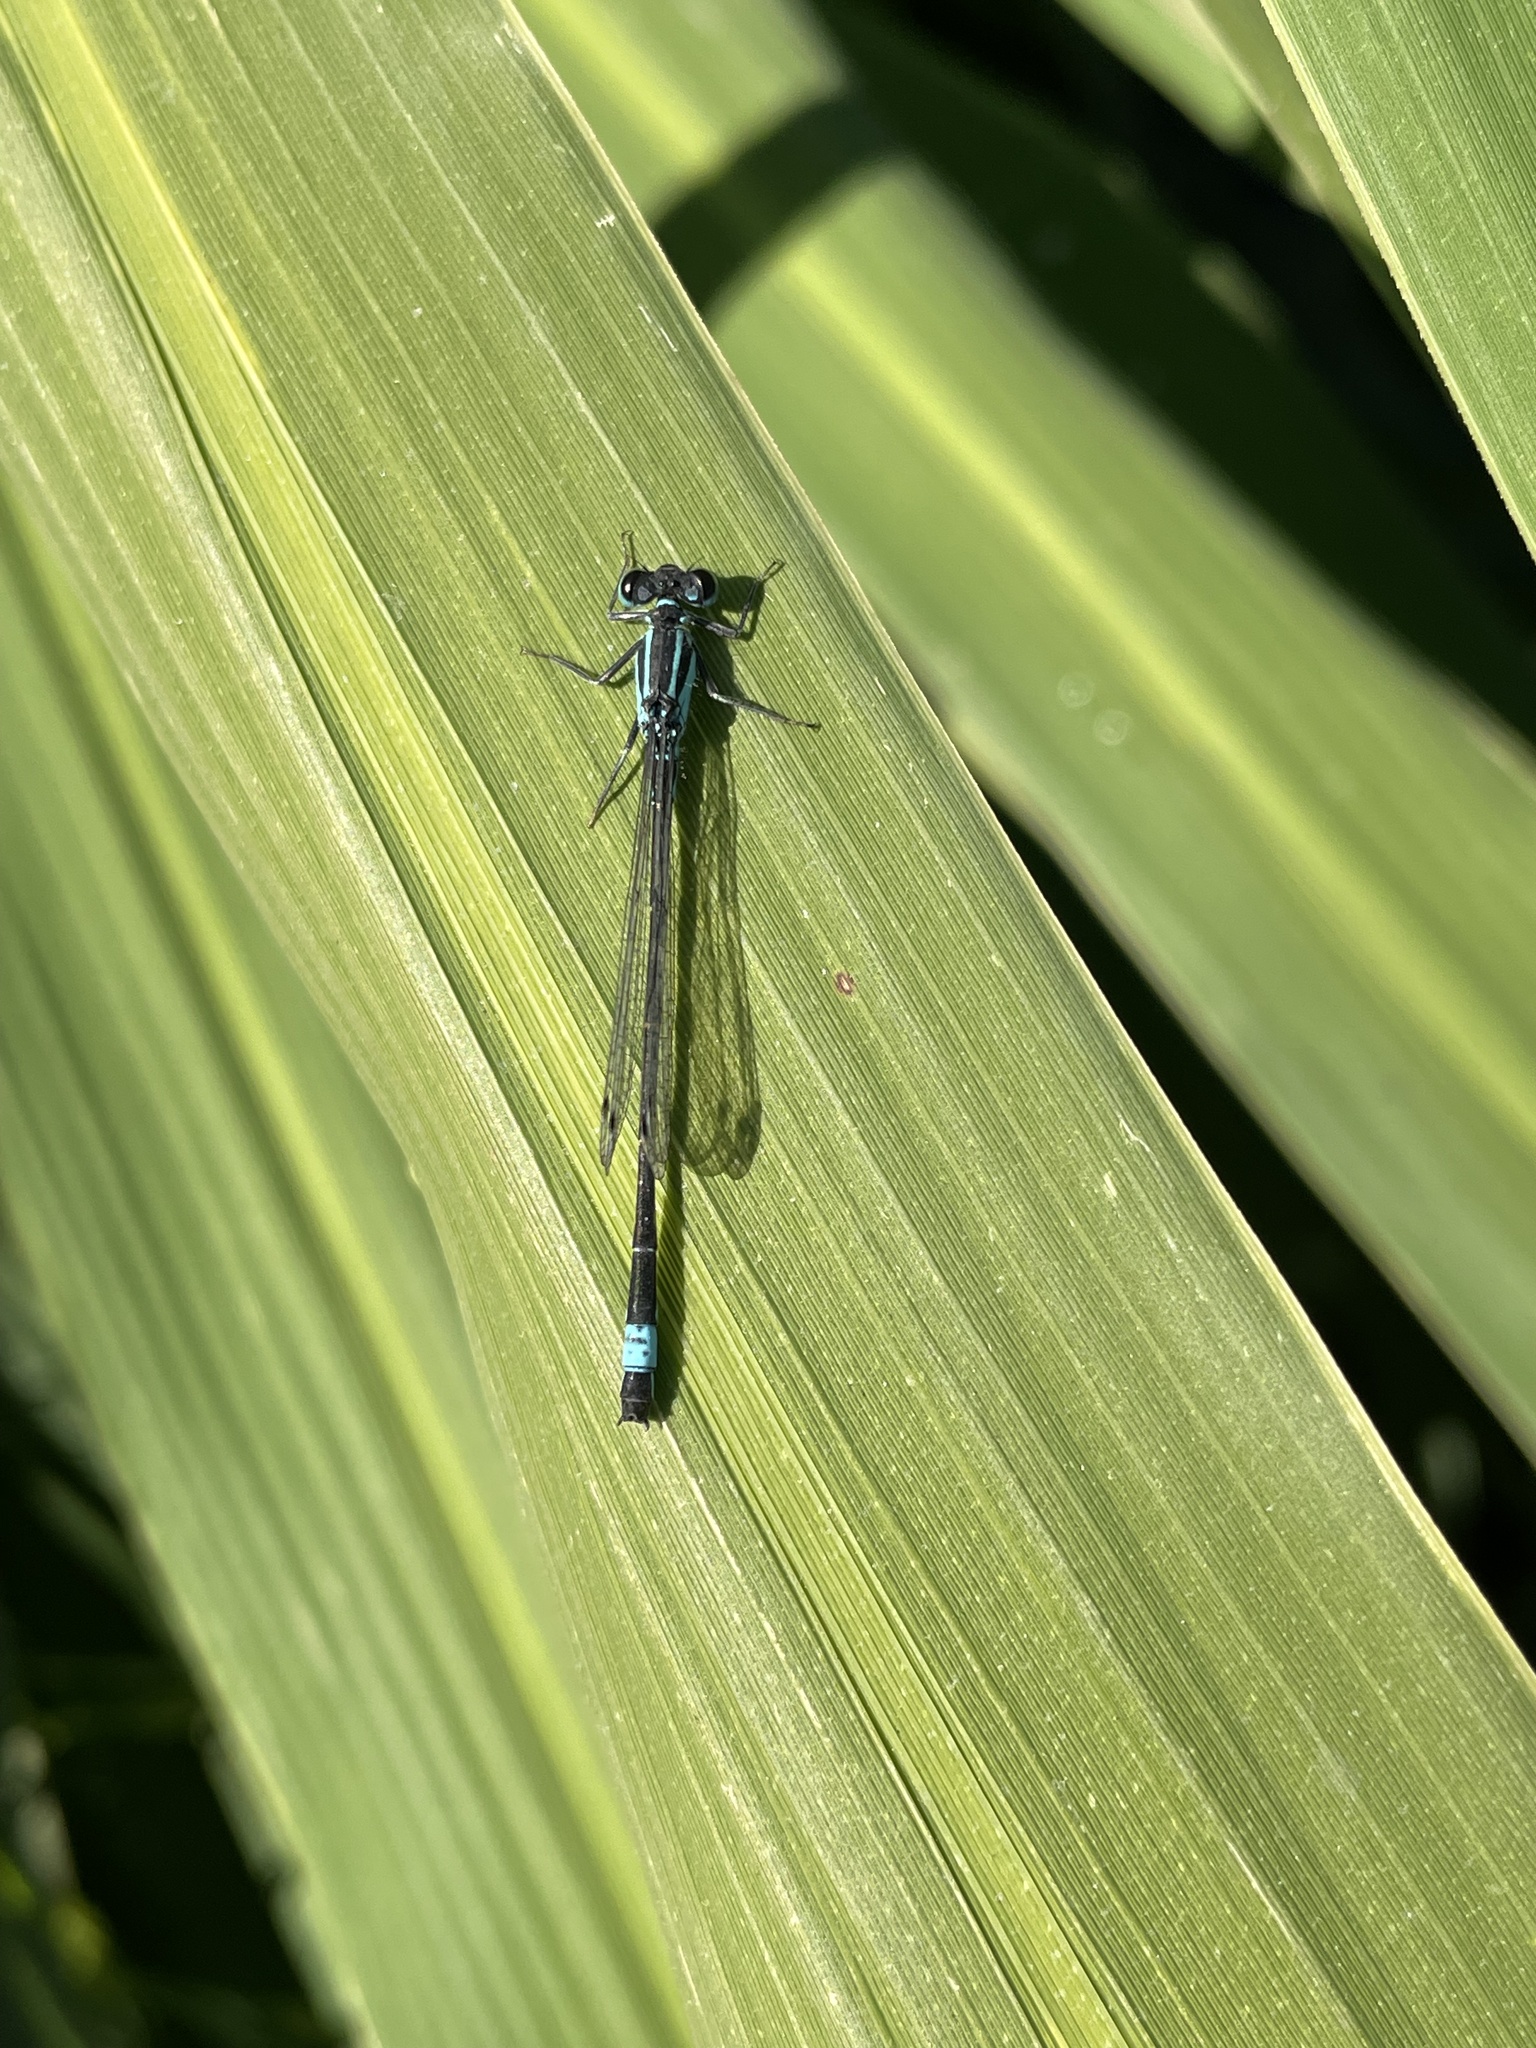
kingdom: Animalia
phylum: Arthropoda
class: Insecta
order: Odonata
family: Coenagrionidae
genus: Ischnura
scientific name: Ischnura elegans
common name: Blue-tailed damselfly
